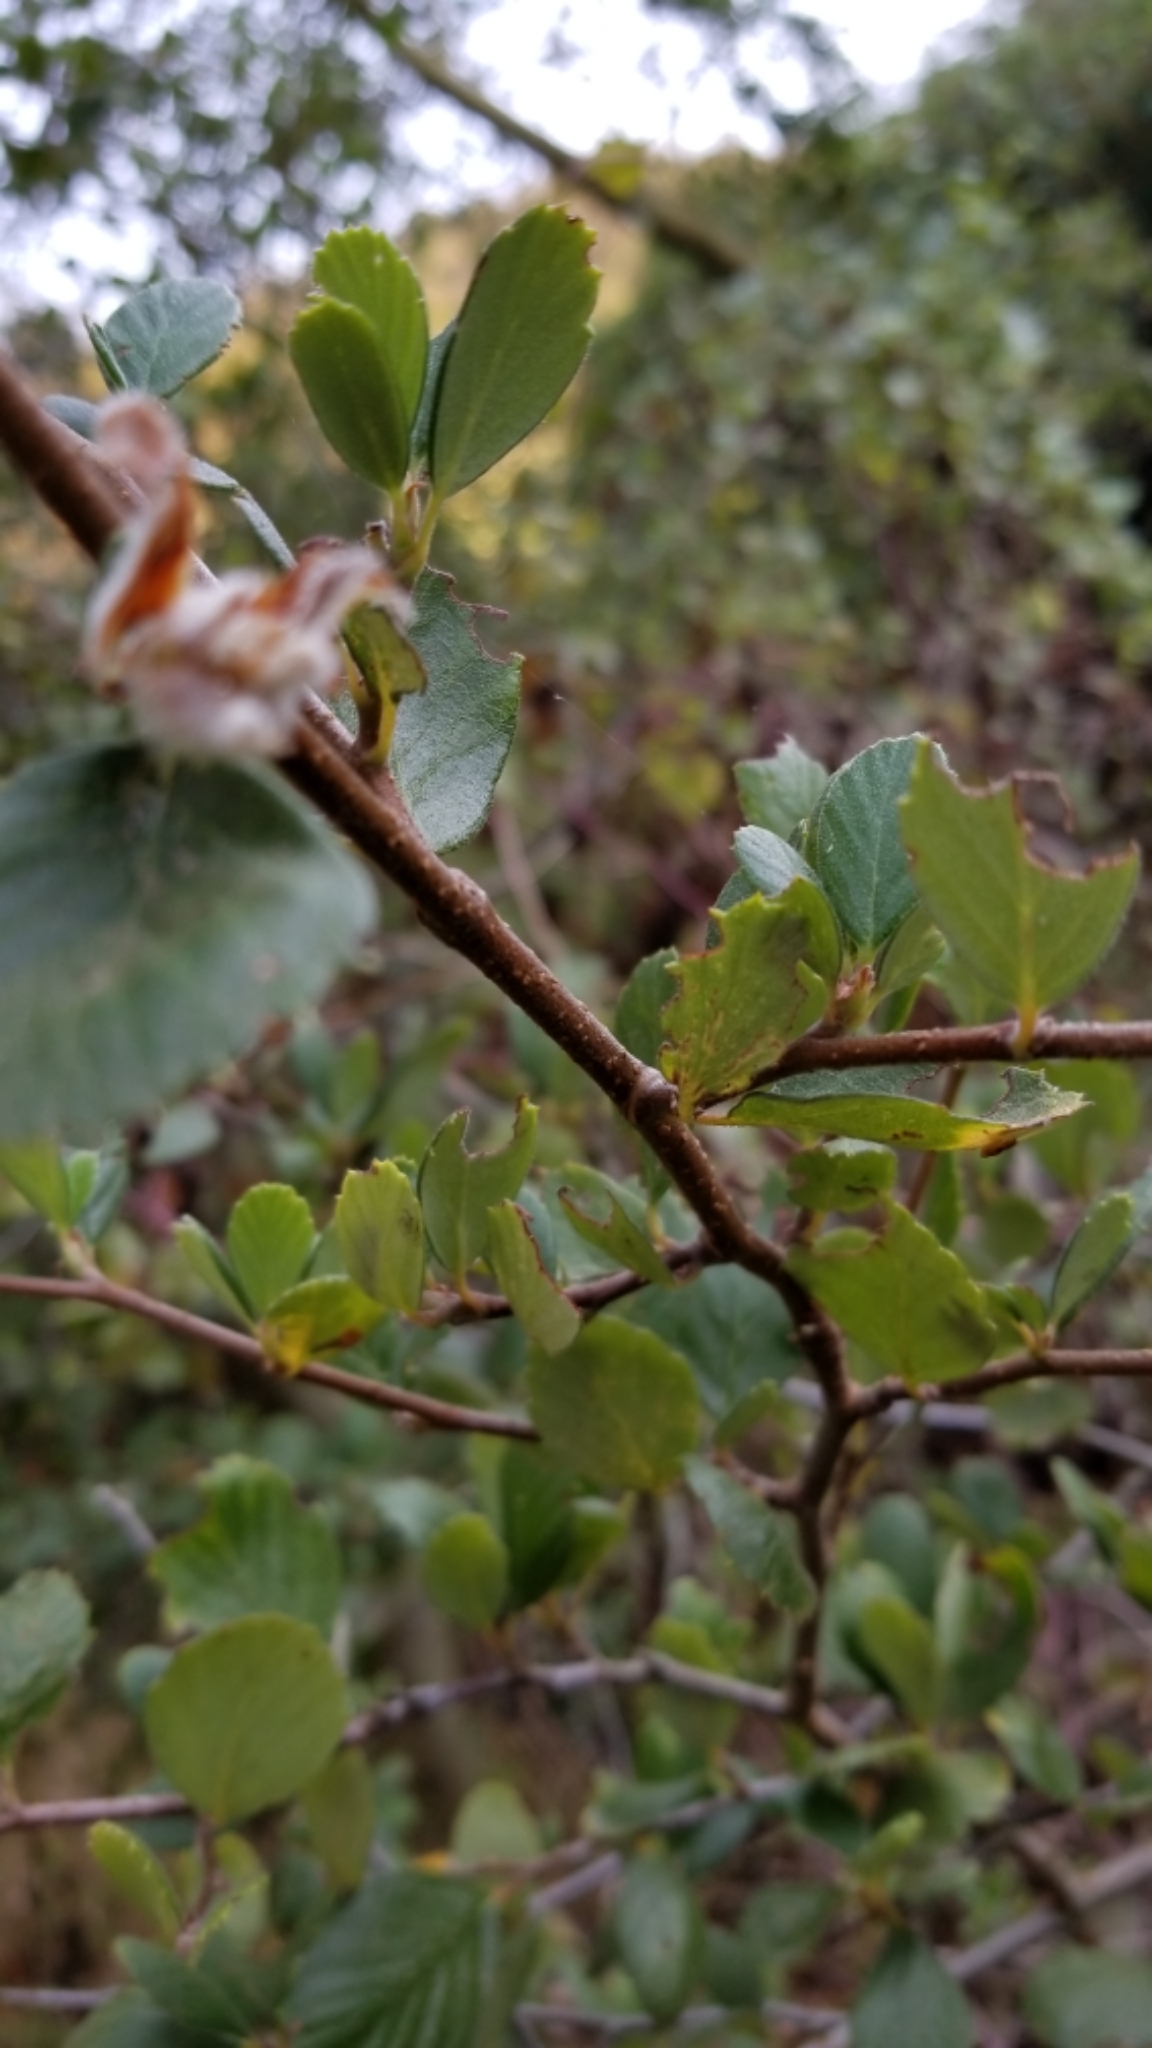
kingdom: Plantae
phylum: Tracheophyta
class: Magnoliopsida
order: Rosales
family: Rosaceae
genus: Cercocarpus
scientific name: Cercocarpus betuloides
